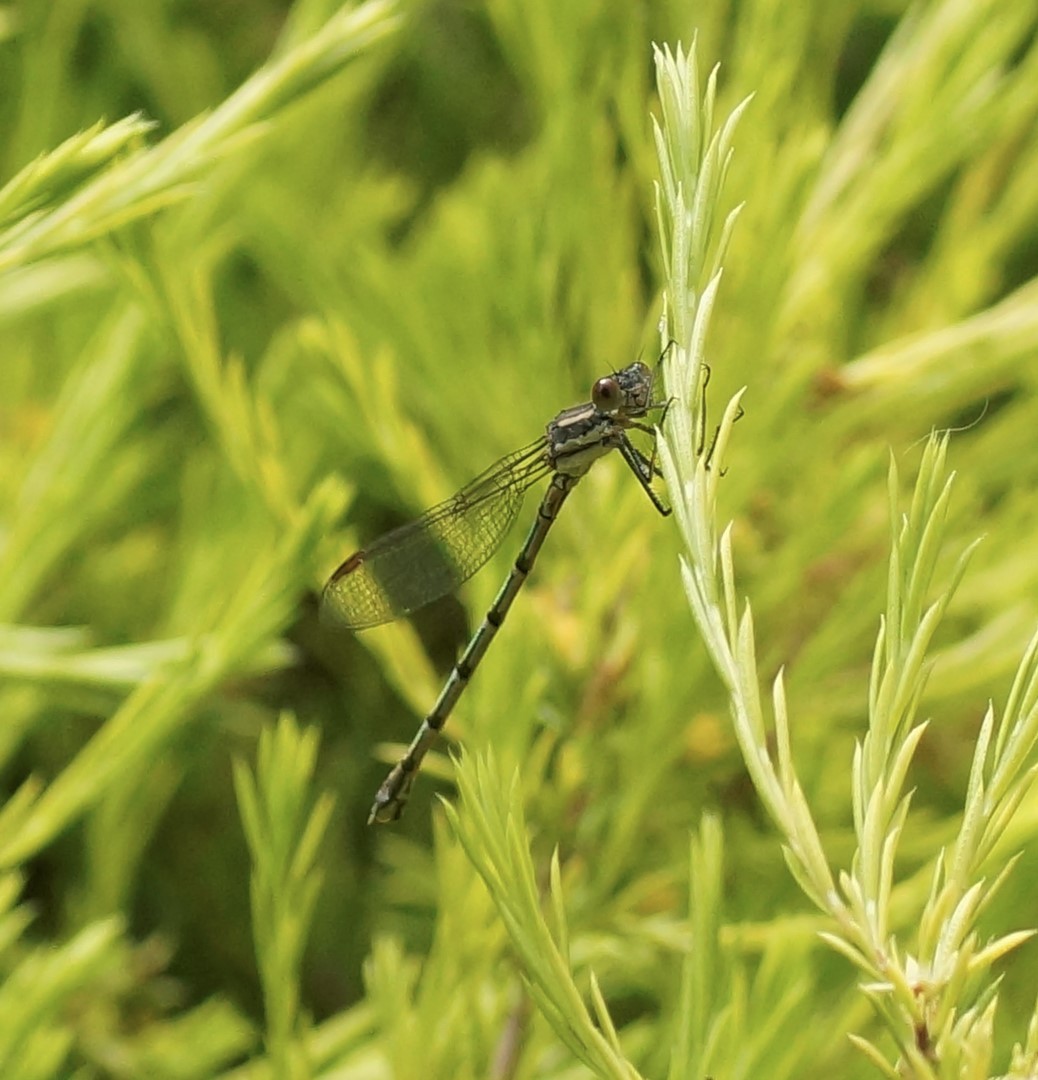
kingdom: Animalia
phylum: Arthropoda
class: Insecta
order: Odonata
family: Lestidae
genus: Austrolestes
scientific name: Austrolestes annulosus
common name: Blue ringtail
